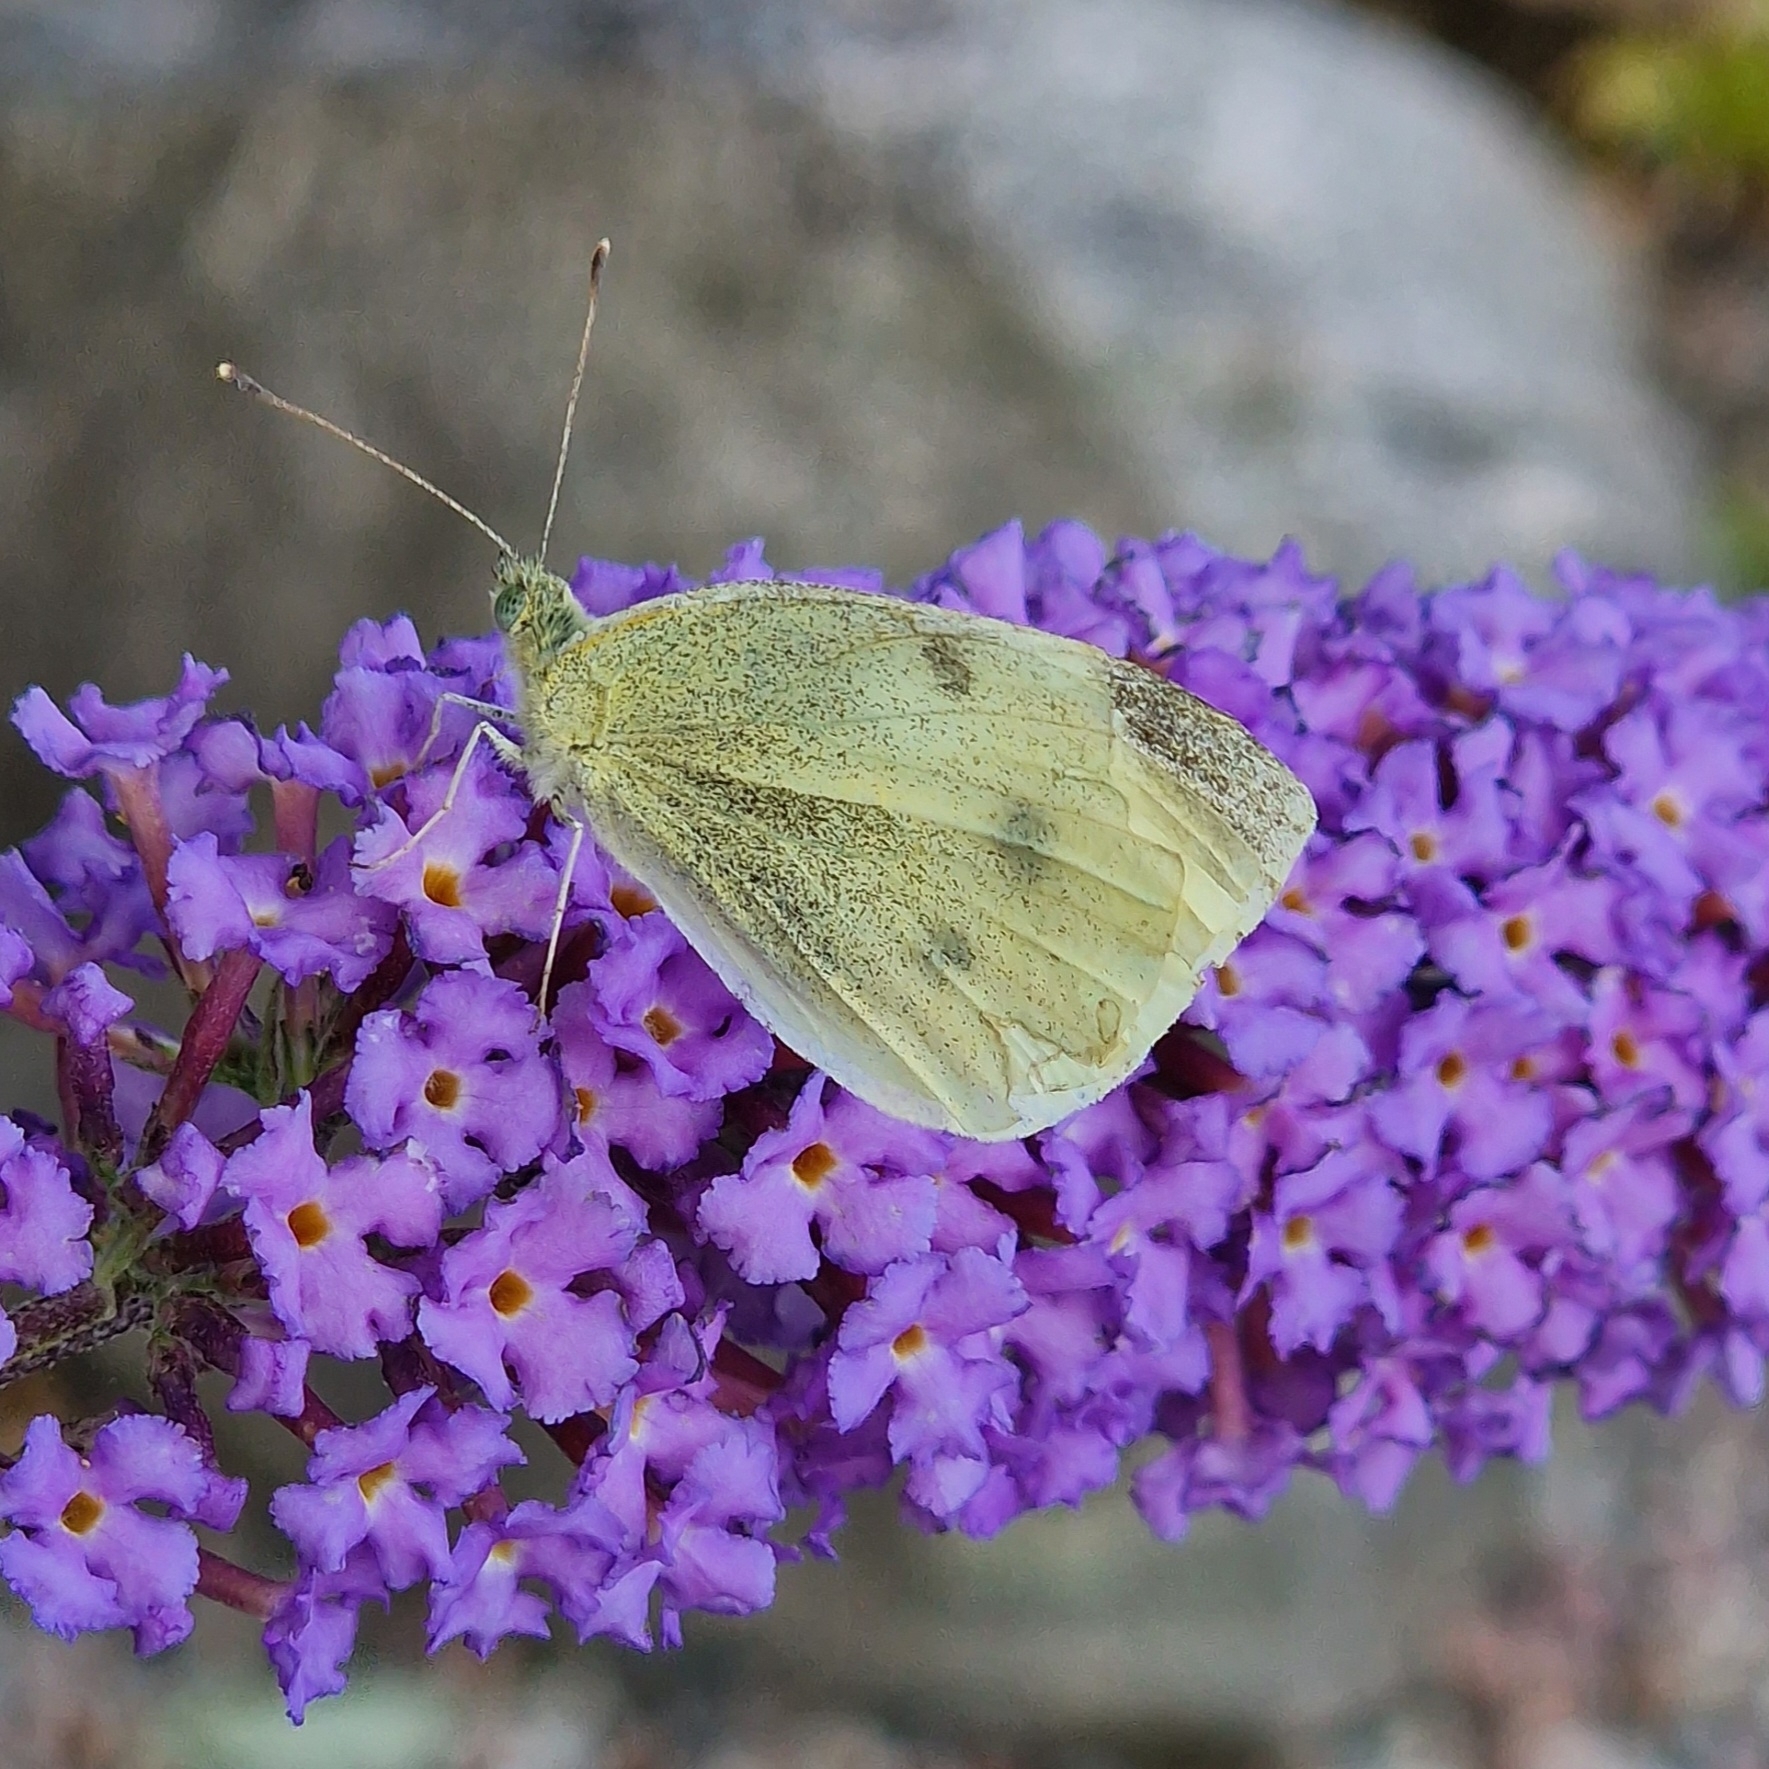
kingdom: Animalia
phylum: Arthropoda
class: Insecta
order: Lepidoptera
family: Pieridae
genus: Pieris
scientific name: Pieris rapae
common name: Small white
